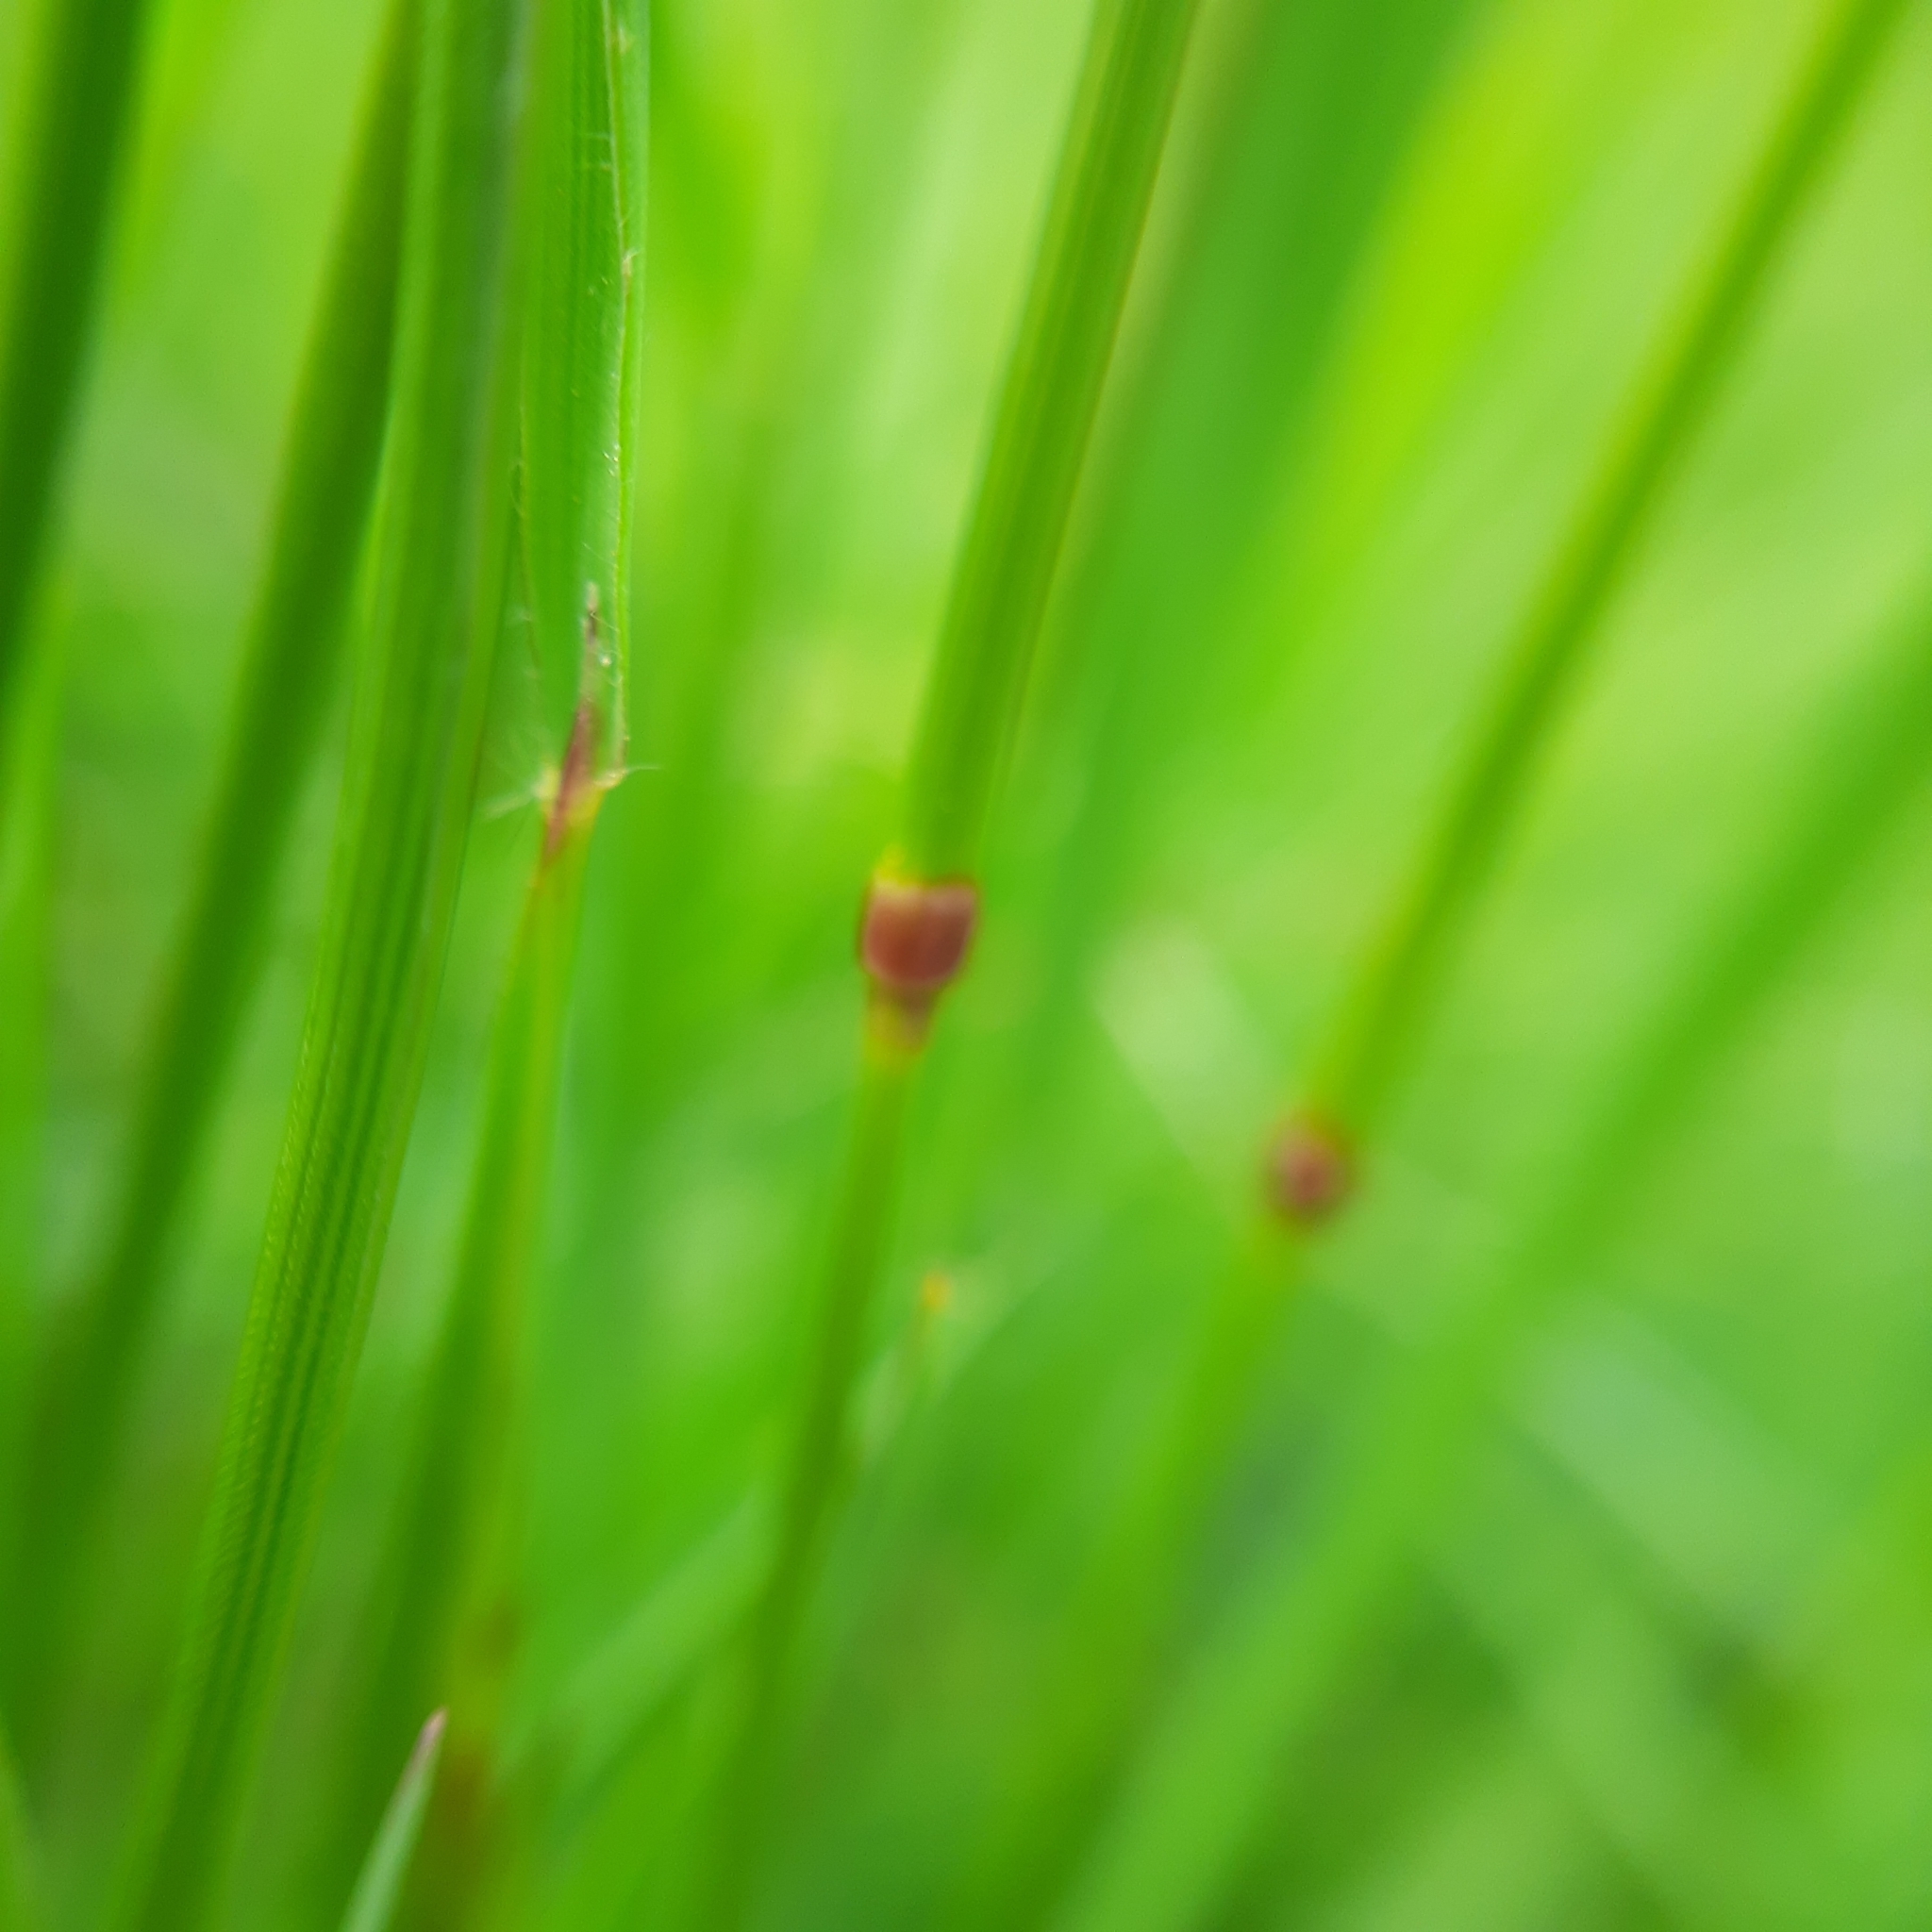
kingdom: Plantae
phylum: Tracheophyta
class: Liliopsida
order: Poales
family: Poaceae
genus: Anthoxanthum
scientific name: Anthoxanthum odoratum
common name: Sweet vernalgrass
